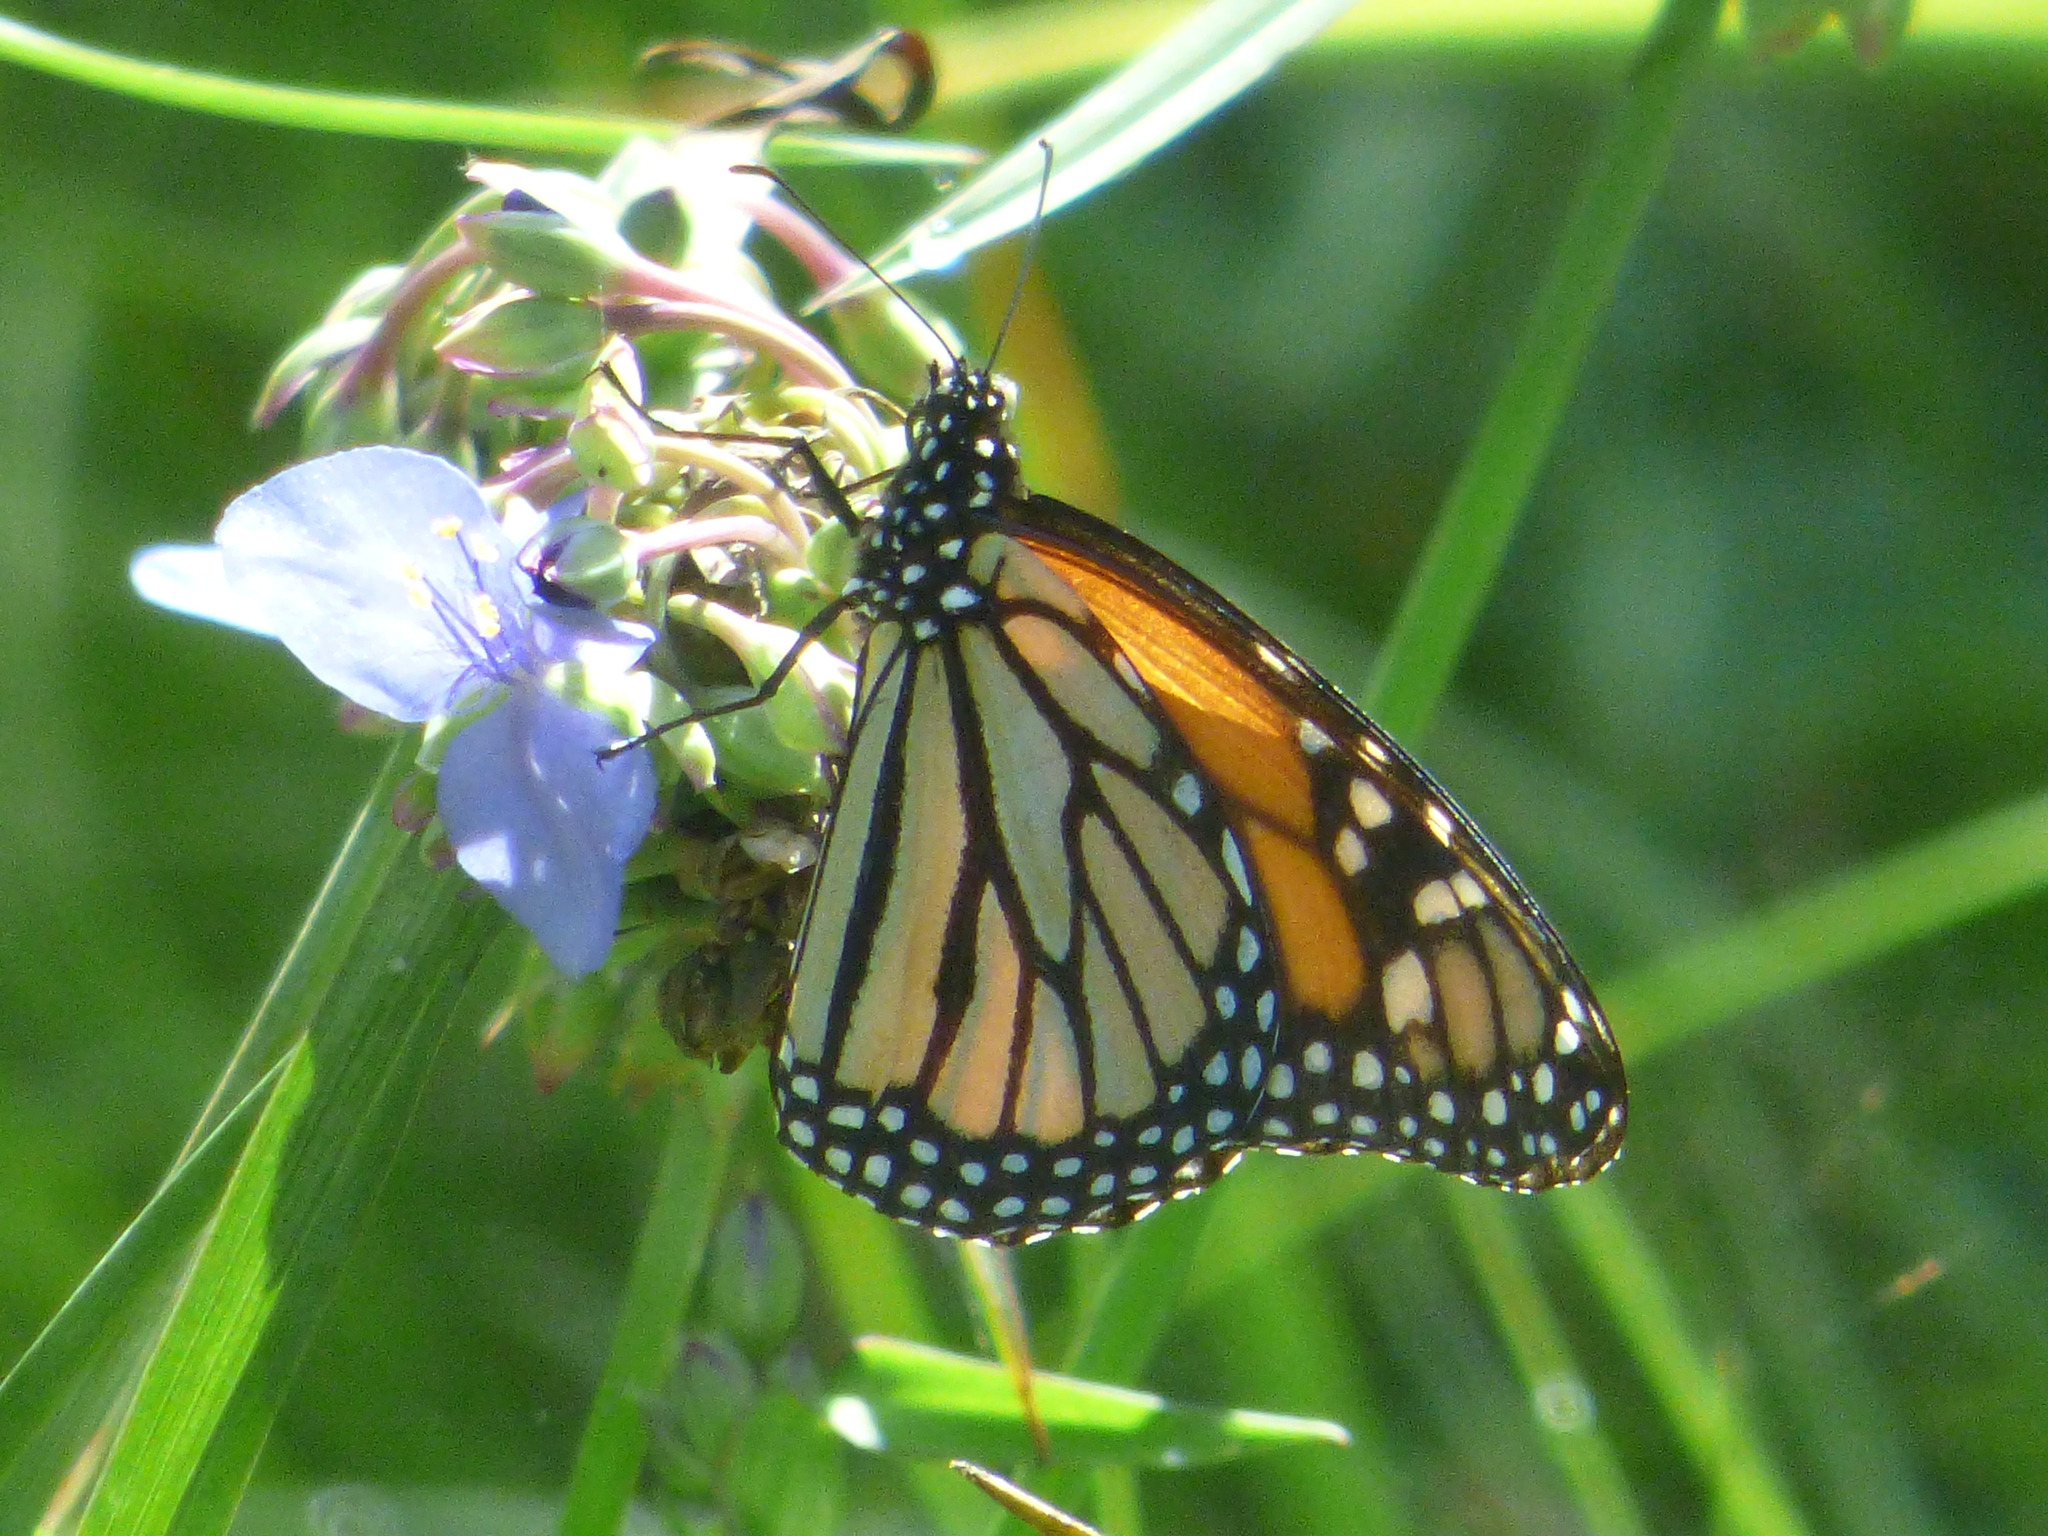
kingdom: Animalia
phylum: Arthropoda
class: Insecta
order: Lepidoptera
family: Nymphalidae
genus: Danaus
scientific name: Danaus plexippus
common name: Monarch
